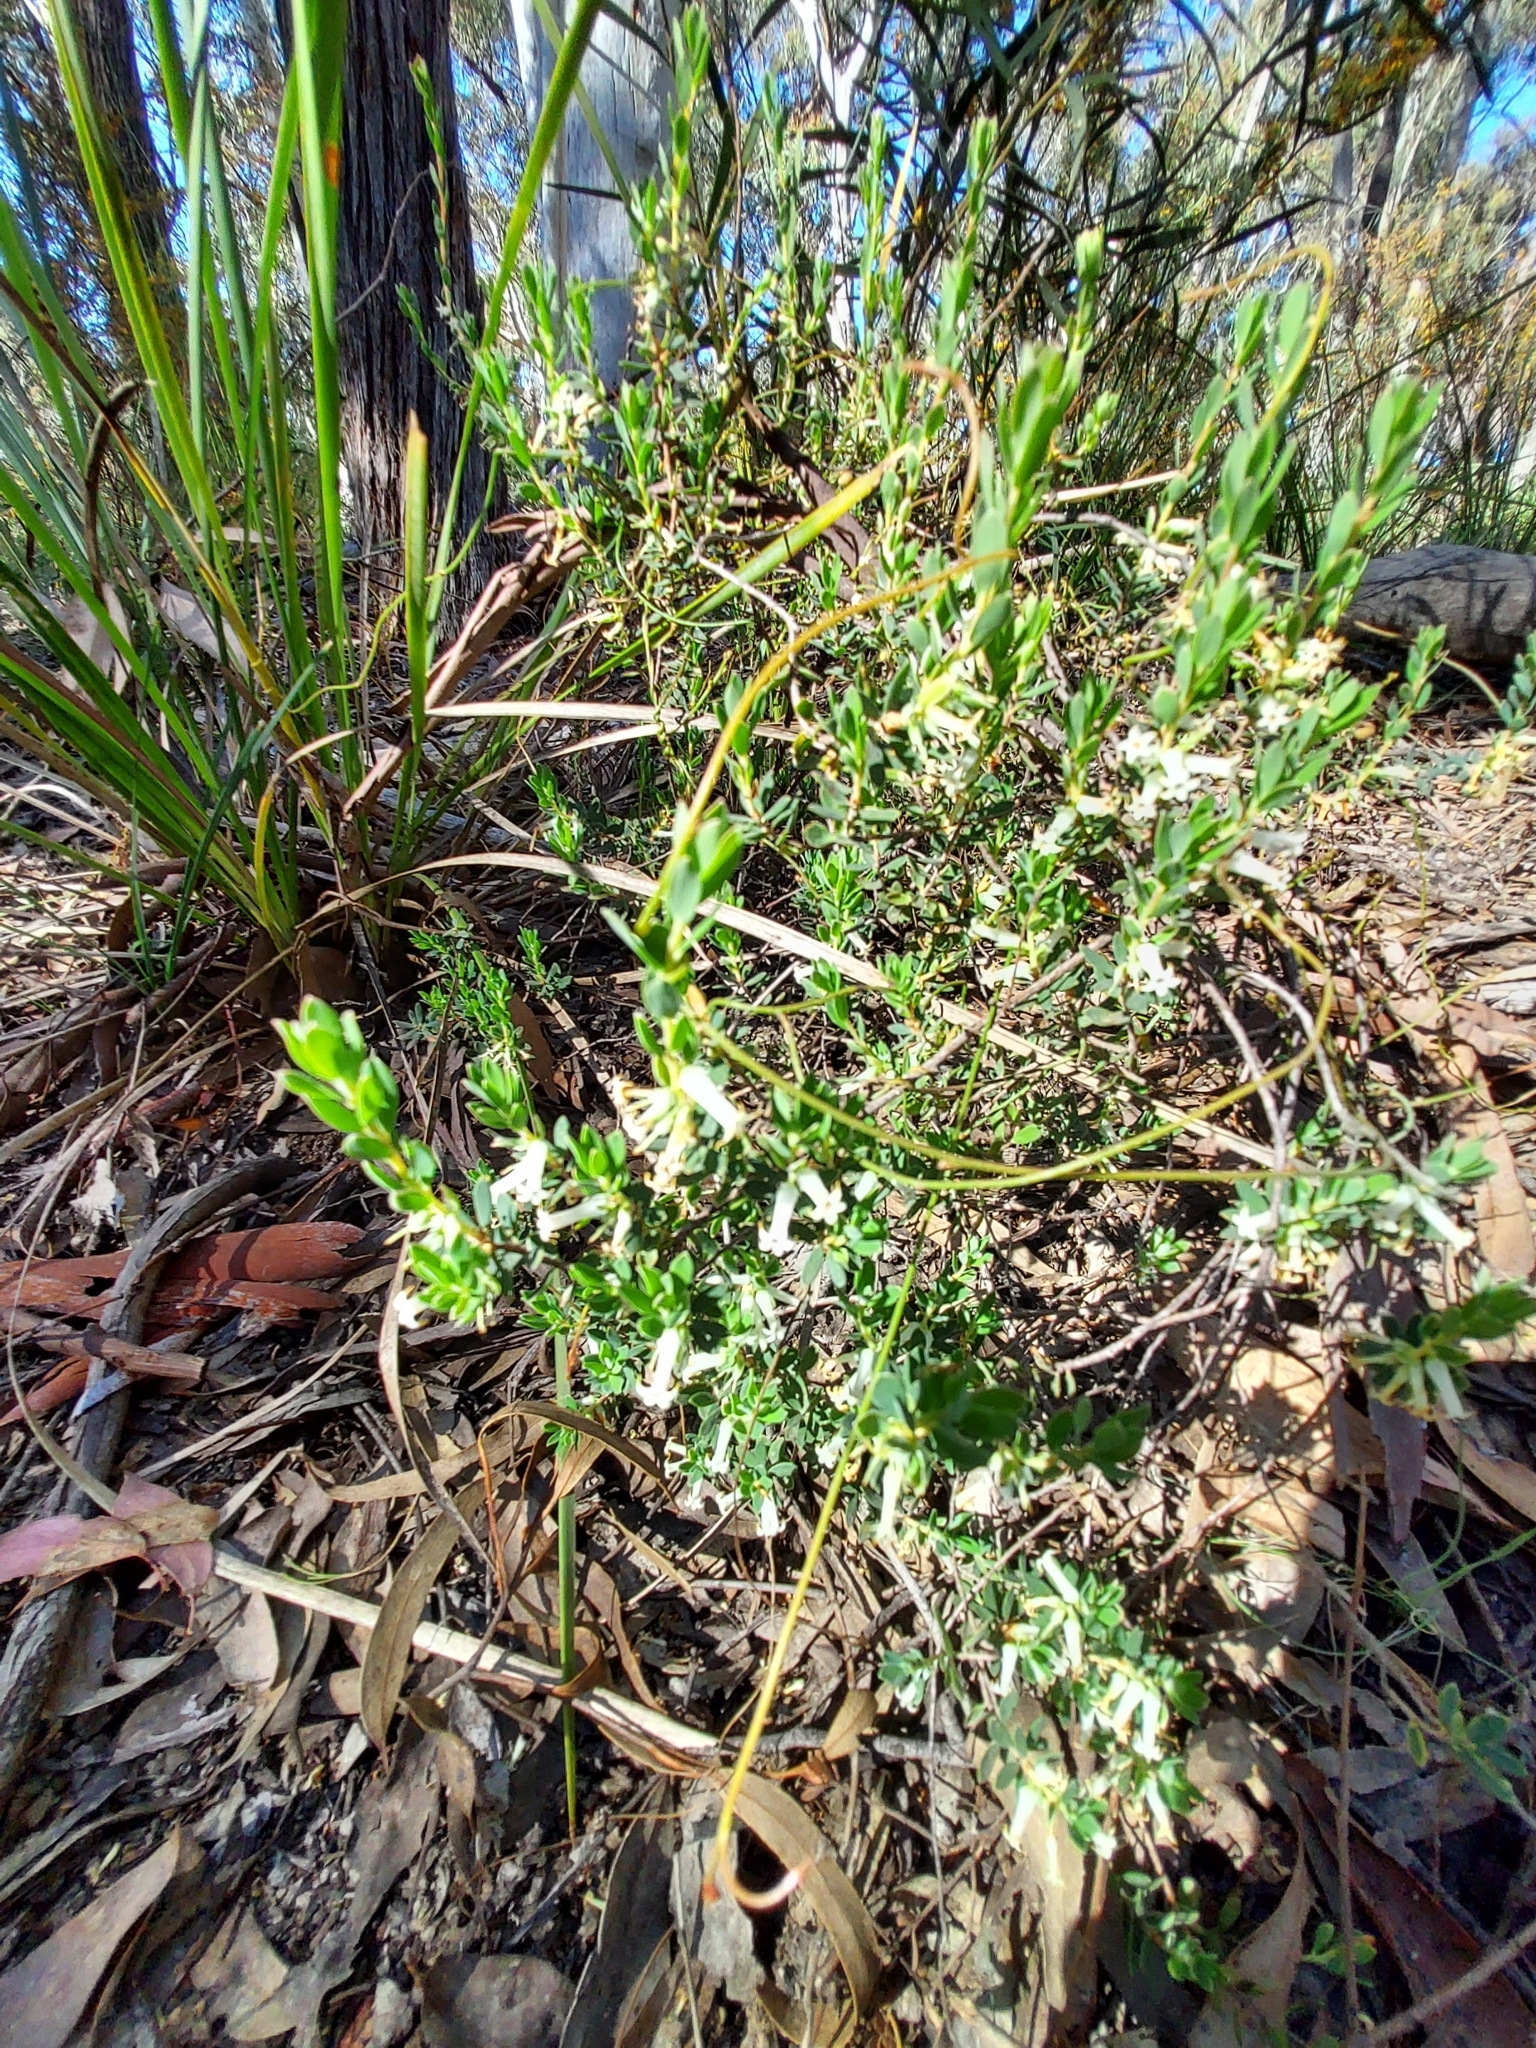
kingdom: Plantae
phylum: Tracheophyta
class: Magnoliopsida
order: Ericales
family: Ericaceae
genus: Brachyloma
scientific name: Brachyloma daphnoides
